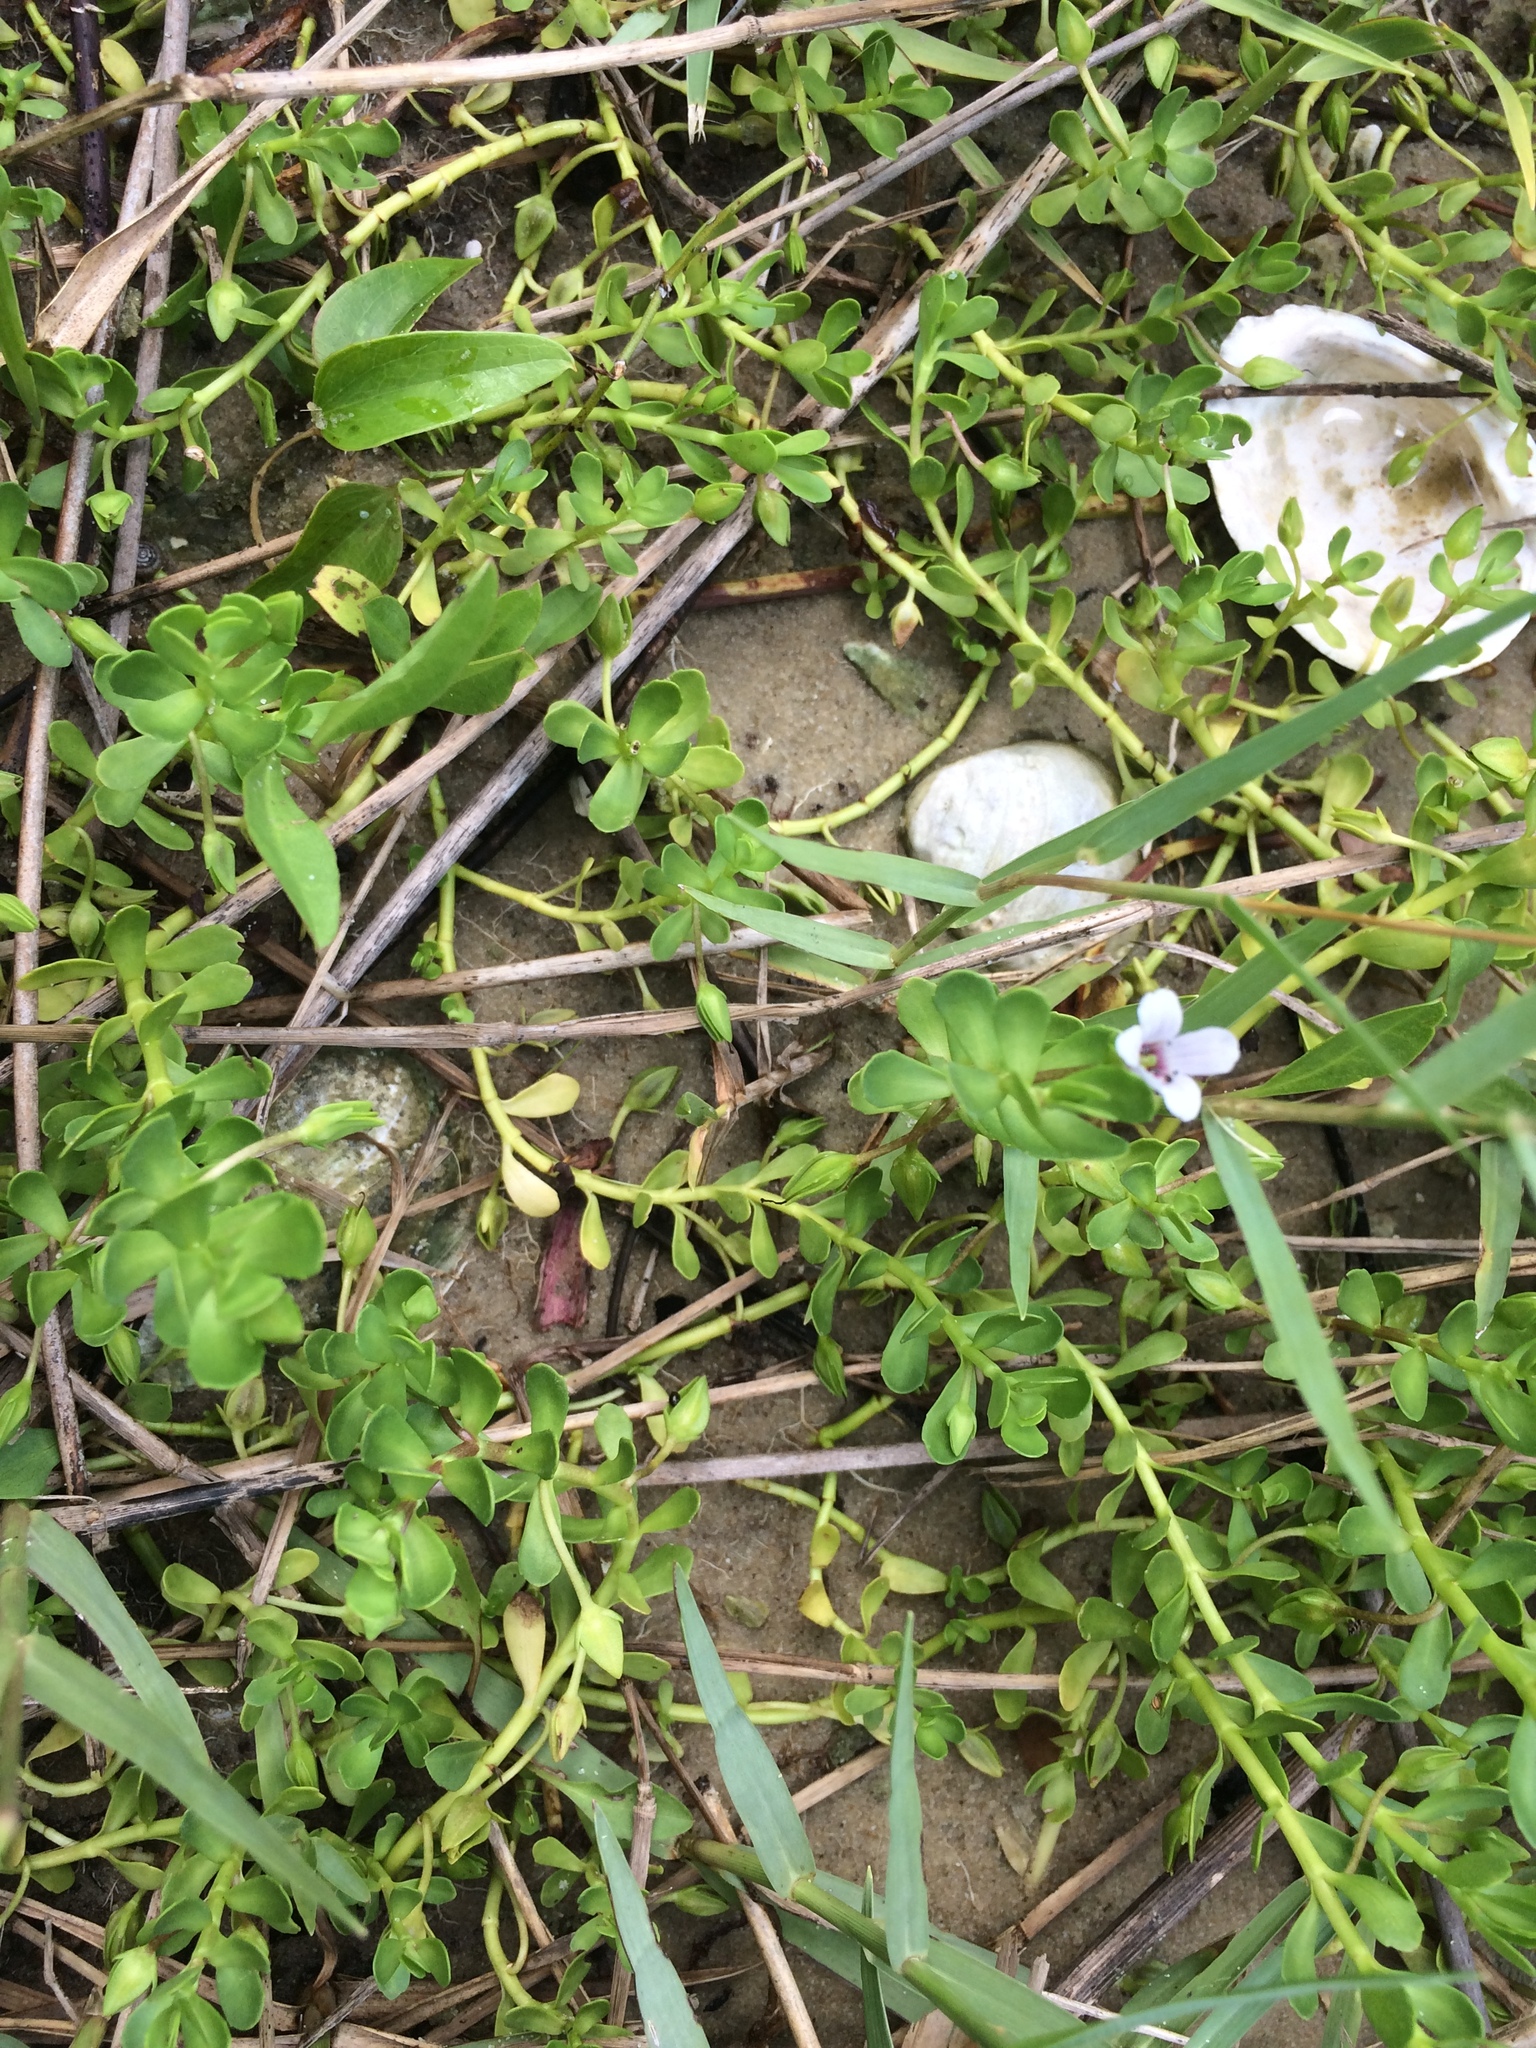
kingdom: Plantae
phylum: Tracheophyta
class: Magnoliopsida
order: Lamiales
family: Plantaginaceae
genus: Bacopa
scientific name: Bacopa monnieri
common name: Indian-pennywort
